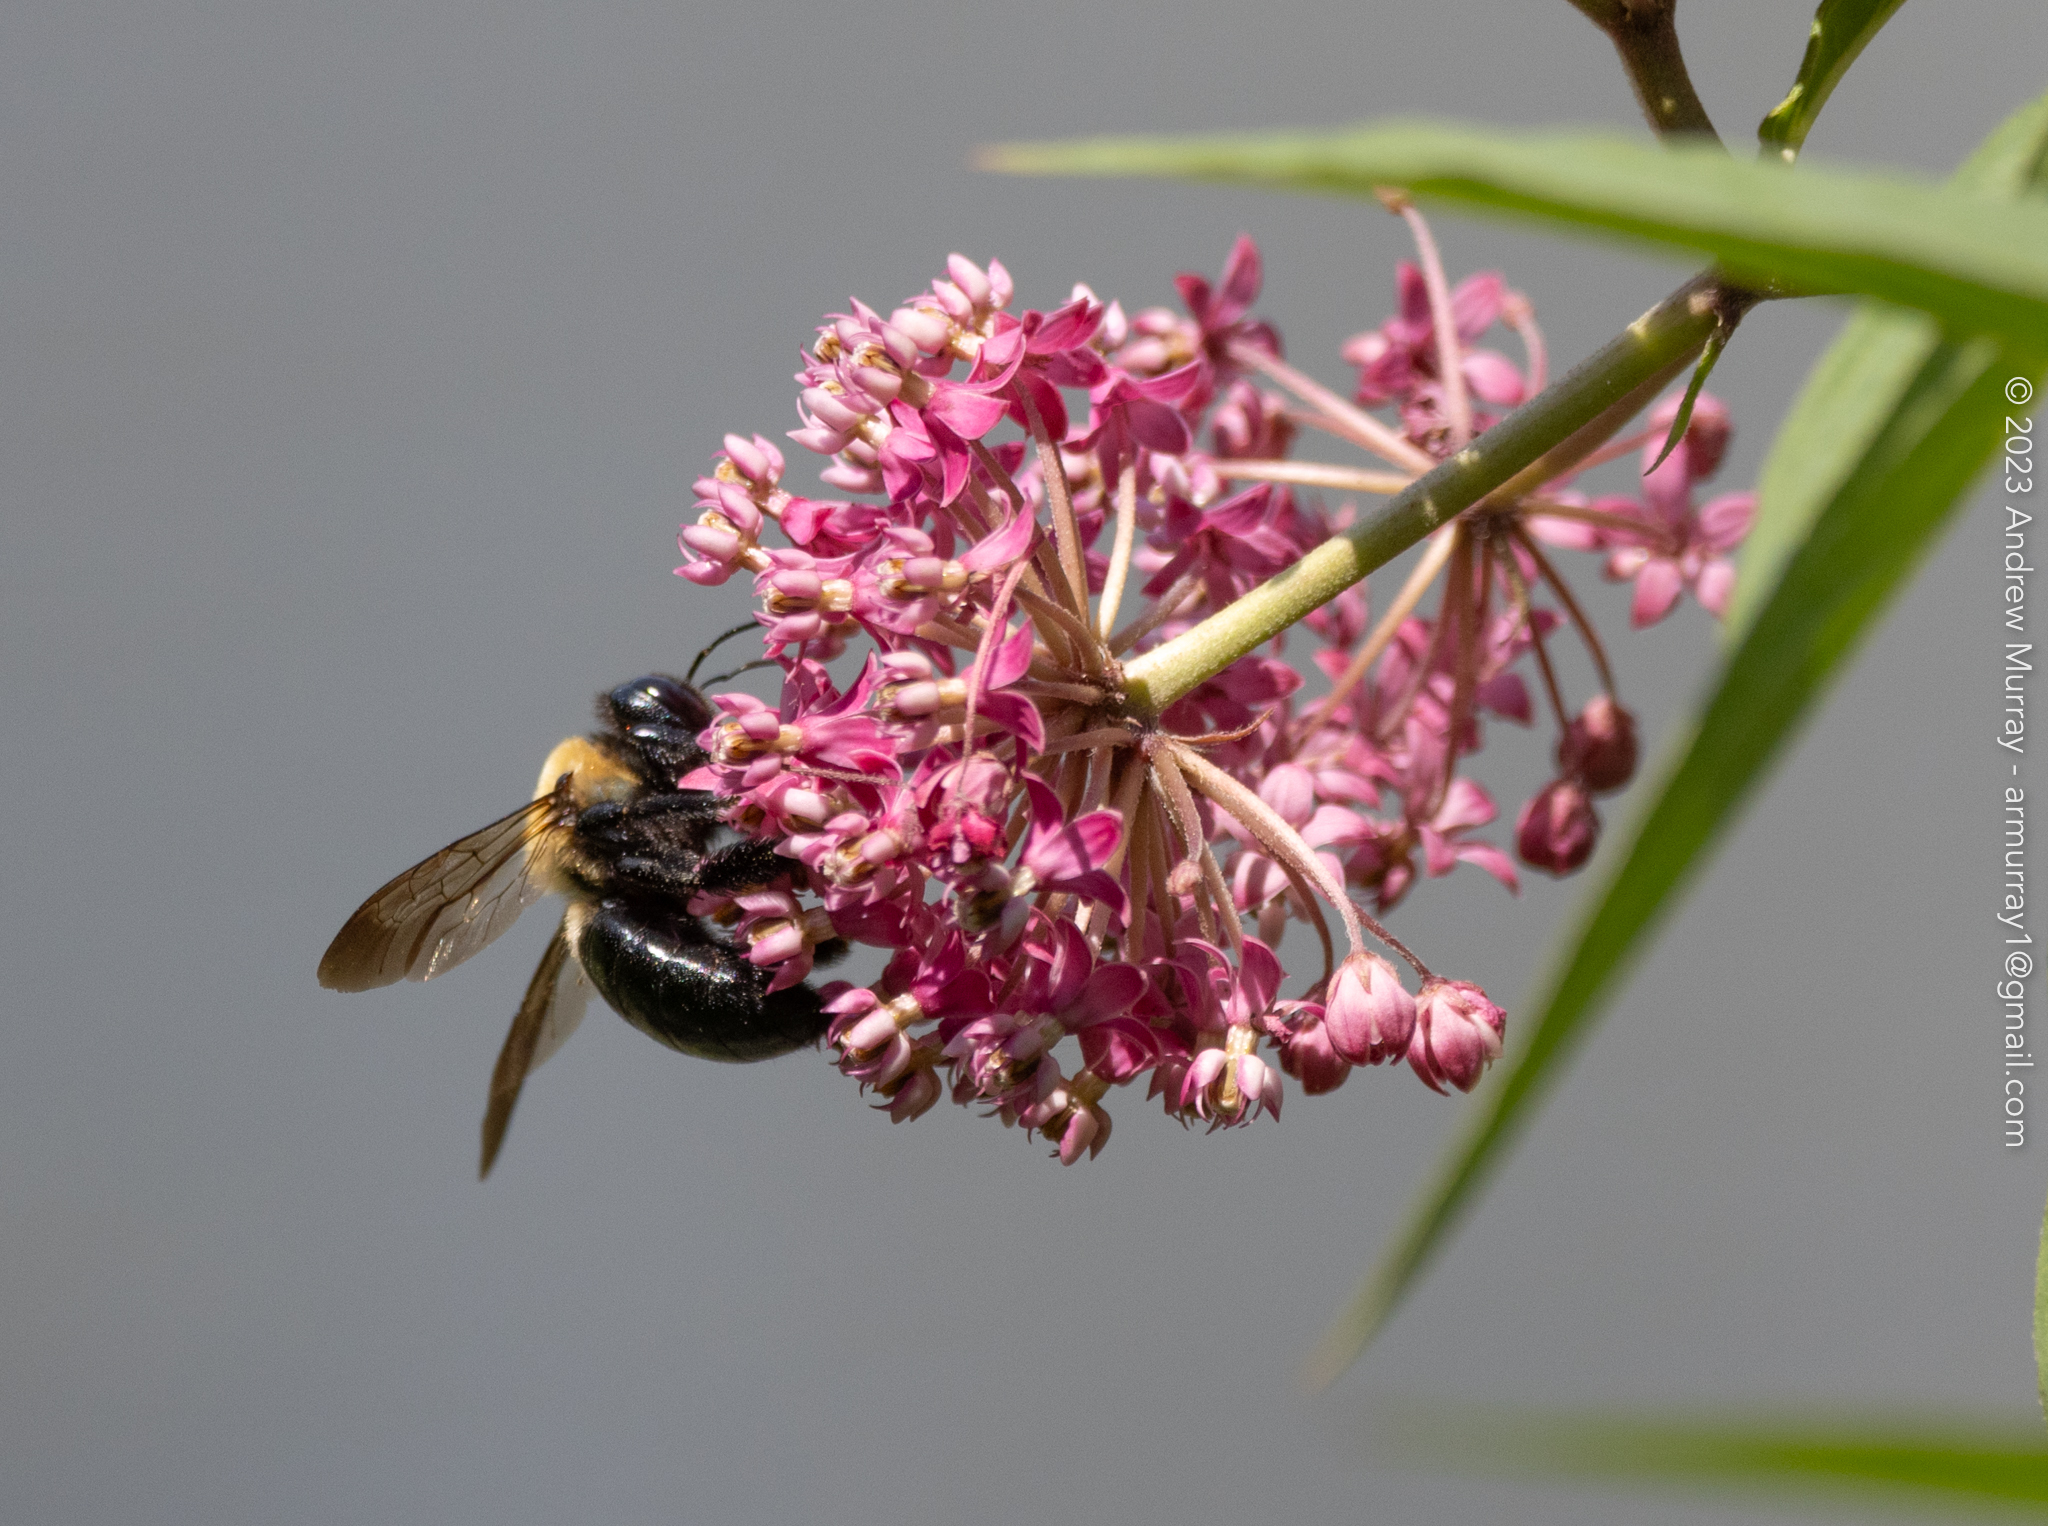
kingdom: Animalia
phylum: Arthropoda
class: Insecta
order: Hymenoptera
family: Apidae
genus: Xylocopa
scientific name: Xylocopa virginica
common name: Carpenter bee
